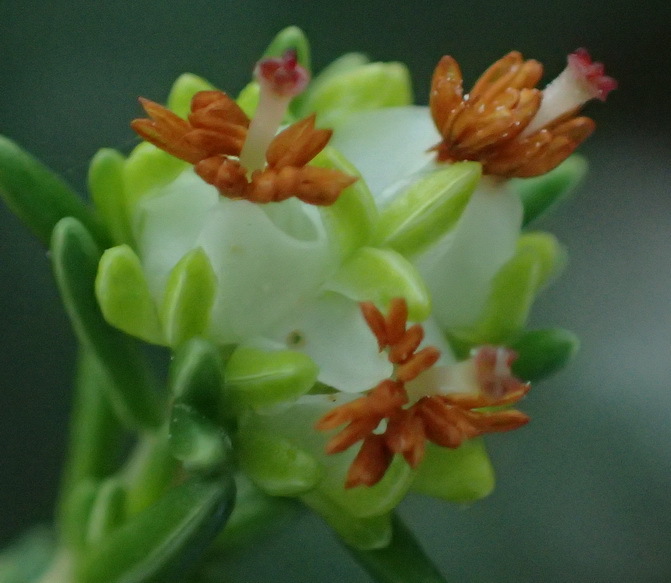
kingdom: Plantae
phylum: Tracheophyta
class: Magnoliopsida
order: Ericales
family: Ericaceae
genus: Erica
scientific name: Erica glumiflora
